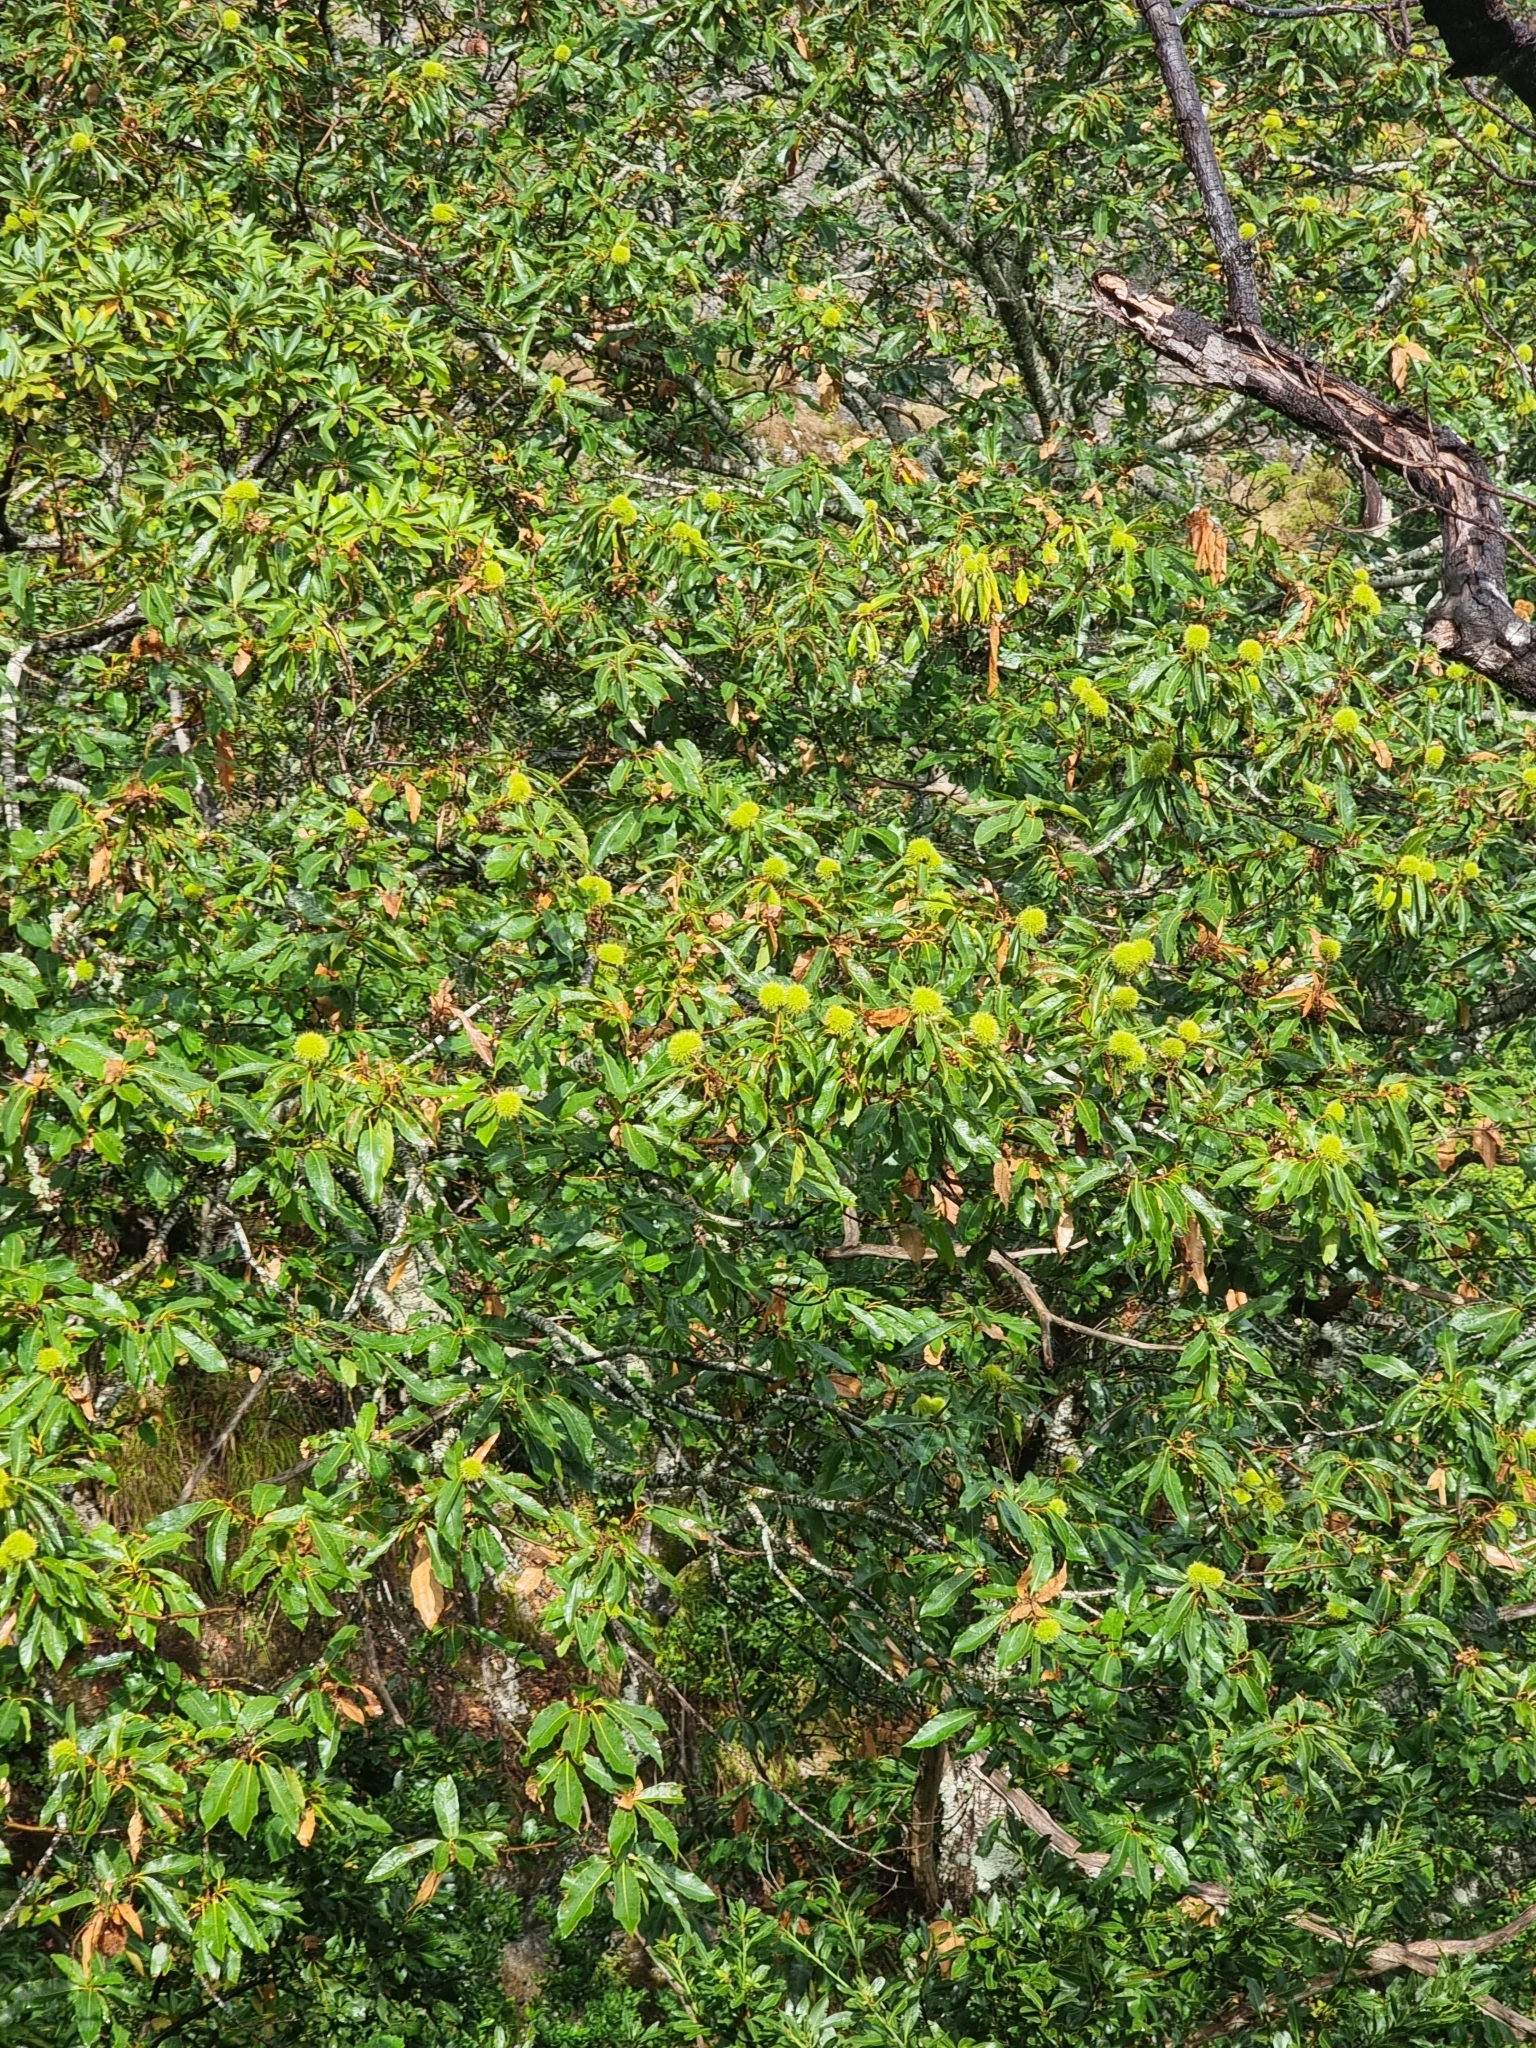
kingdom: Plantae
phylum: Tracheophyta
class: Magnoliopsida
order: Fagales
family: Fagaceae
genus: Castanea
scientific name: Castanea sativa
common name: Sweet chestnut
